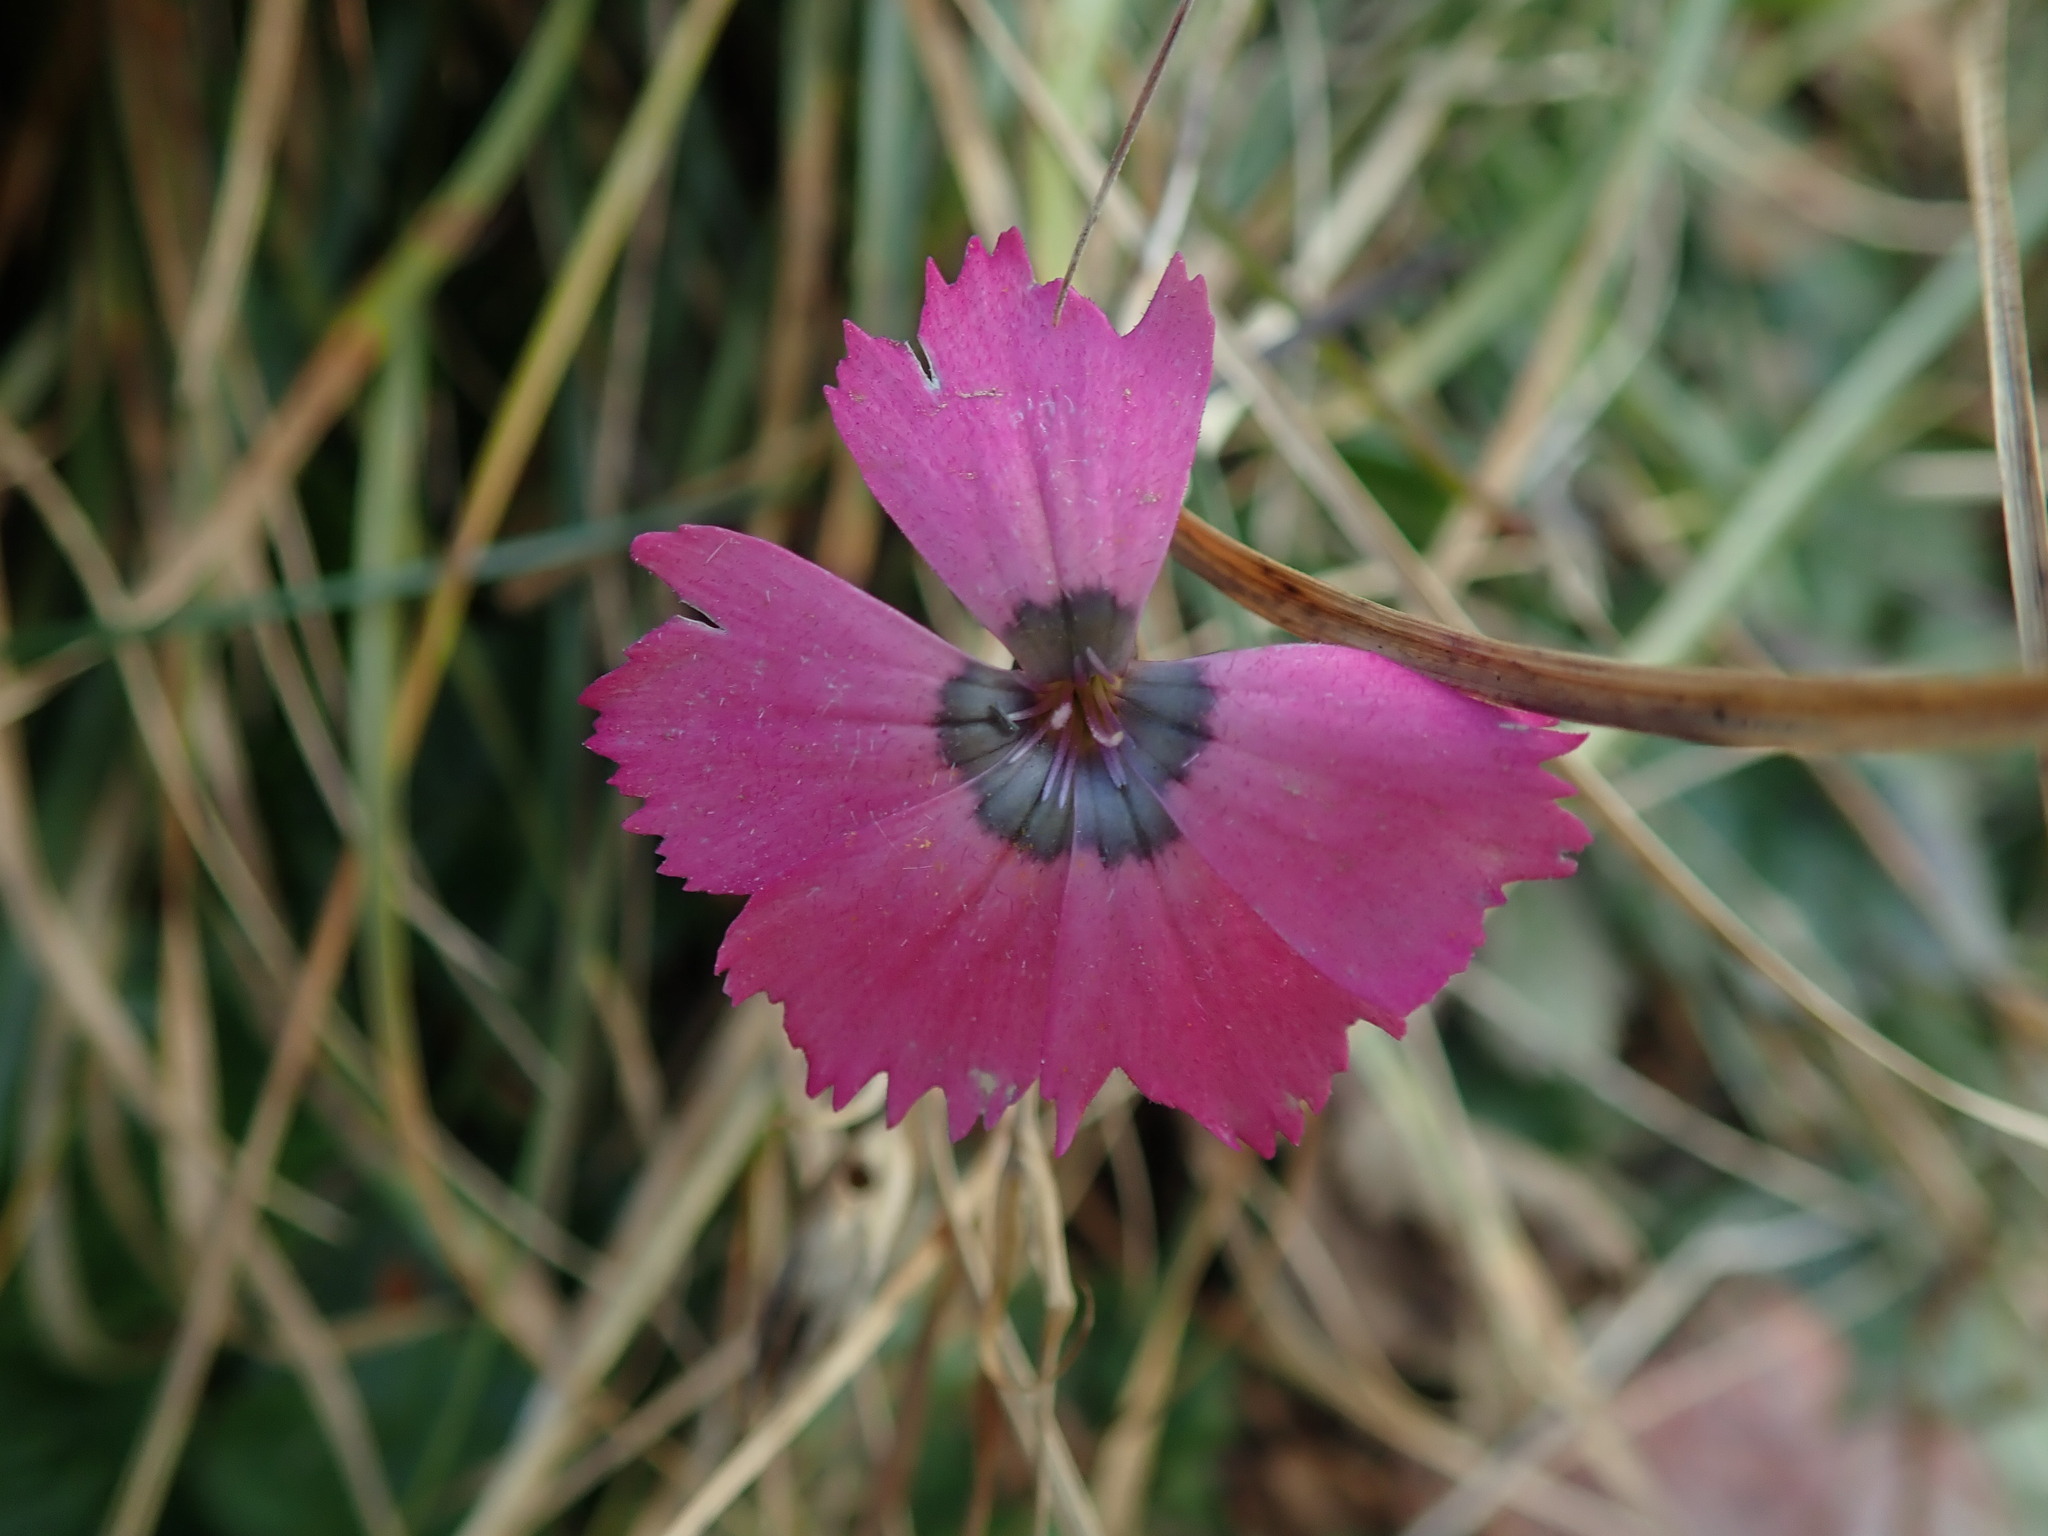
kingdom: Plantae
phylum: Tracheophyta
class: Magnoliopsida
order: Caryophyllales
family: Caryophyllaceae
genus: Dianthus
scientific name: Dianthus pavonius
